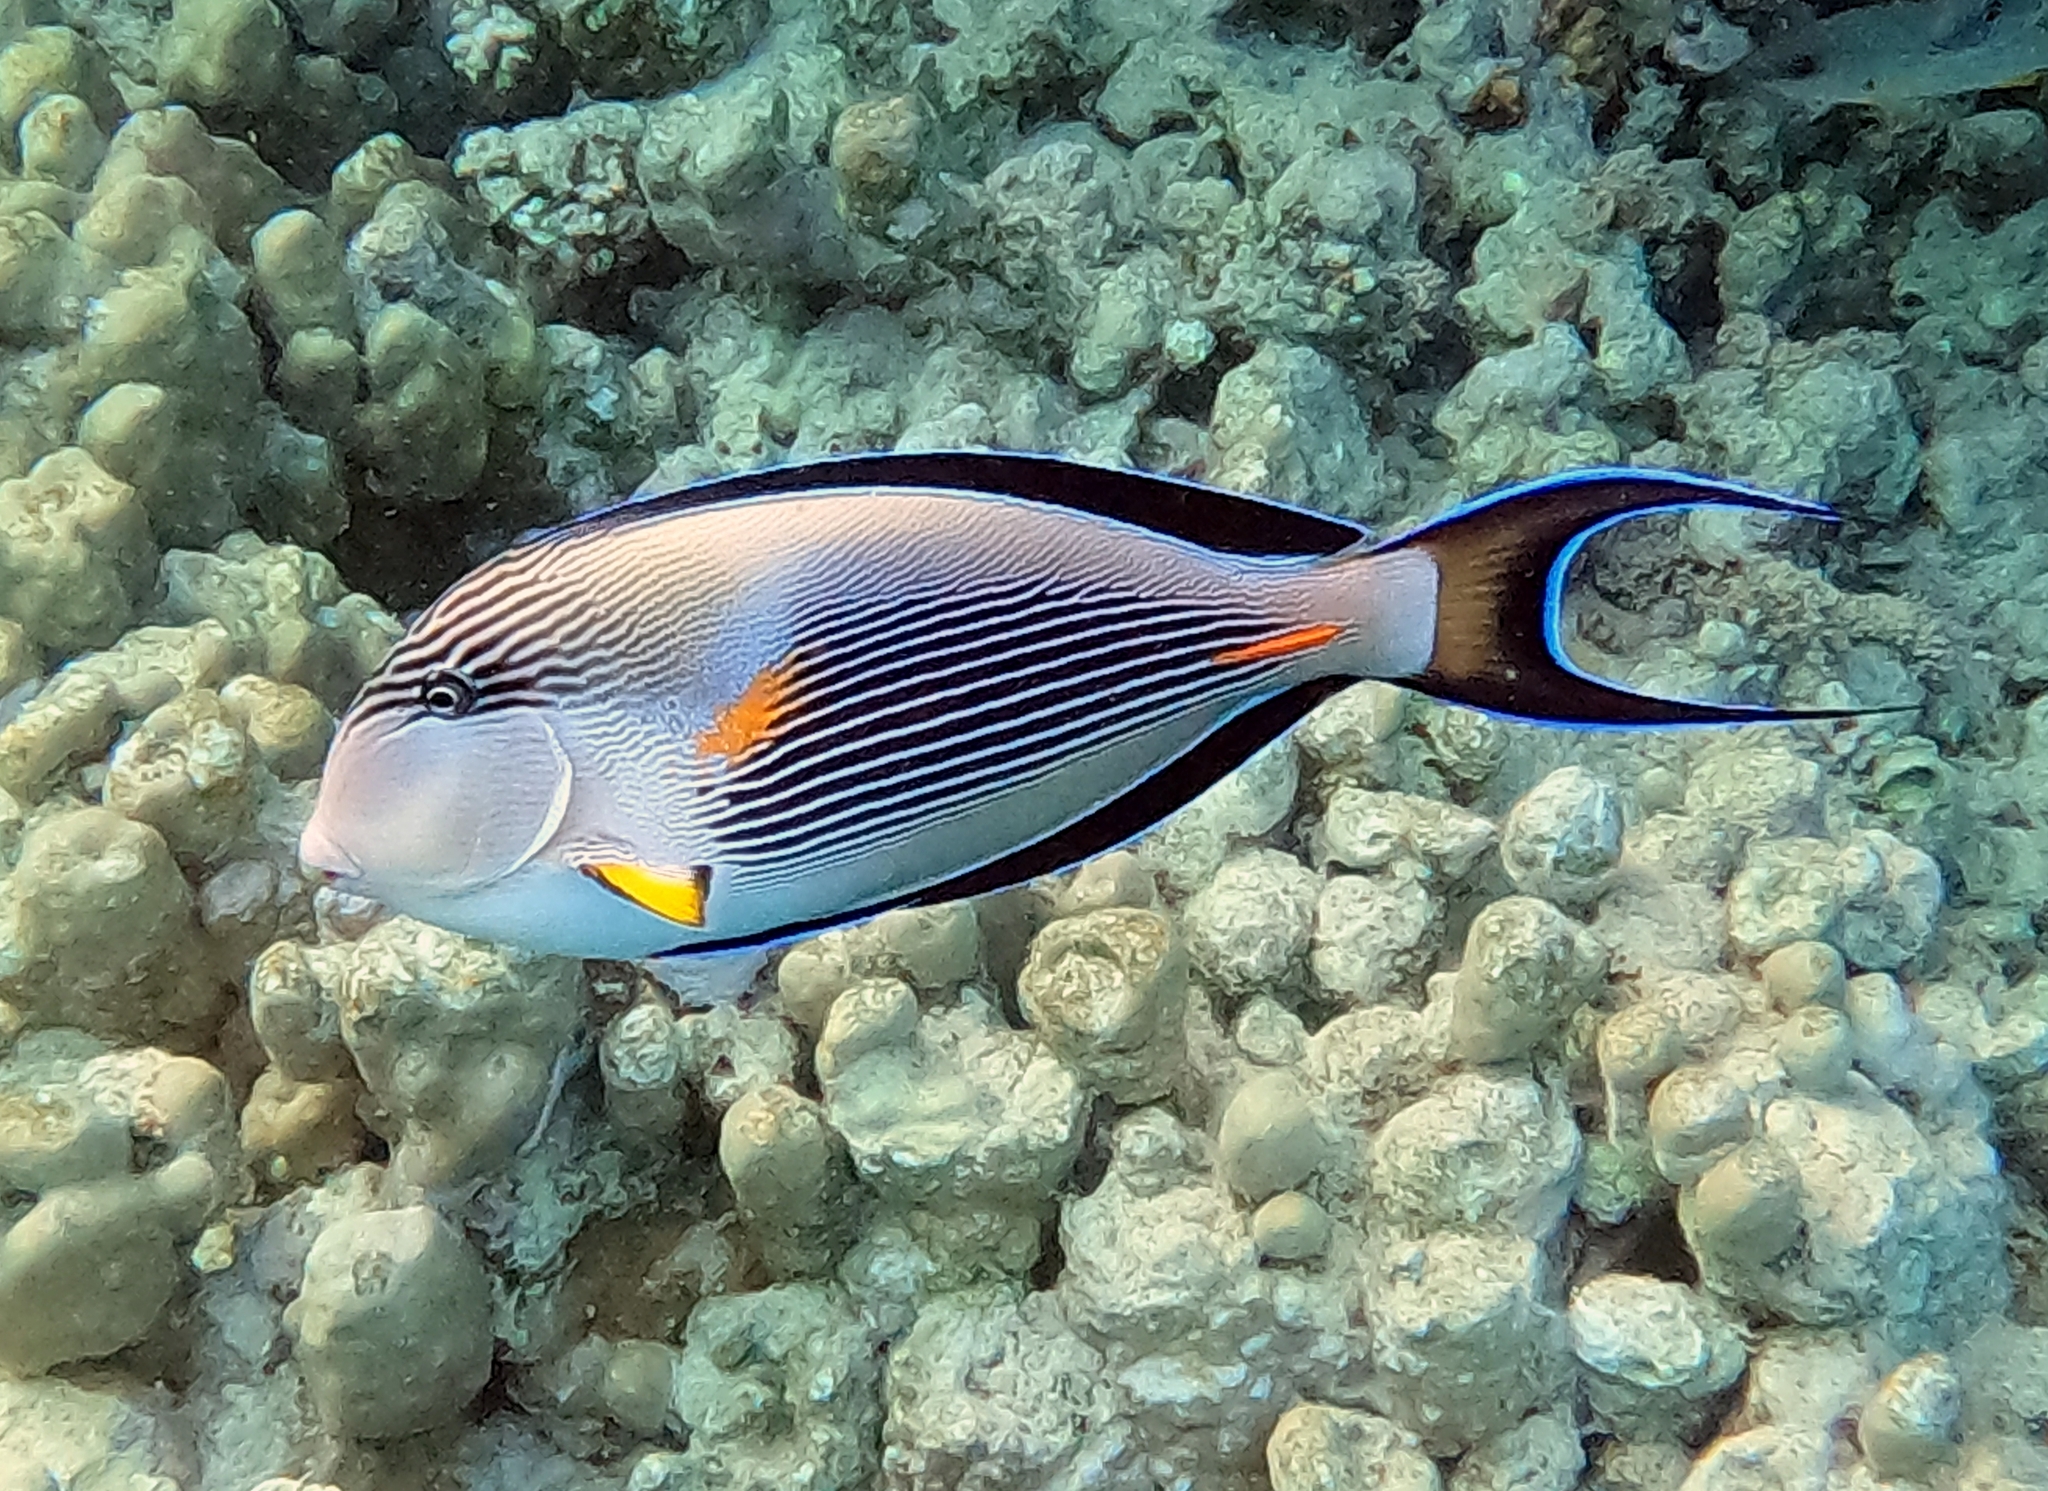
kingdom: Animalia
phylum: Chordata
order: Perciformes
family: Acanthuridae
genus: Acanthurus
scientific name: Acanthurus sohal
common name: Red sea surgeonfish
